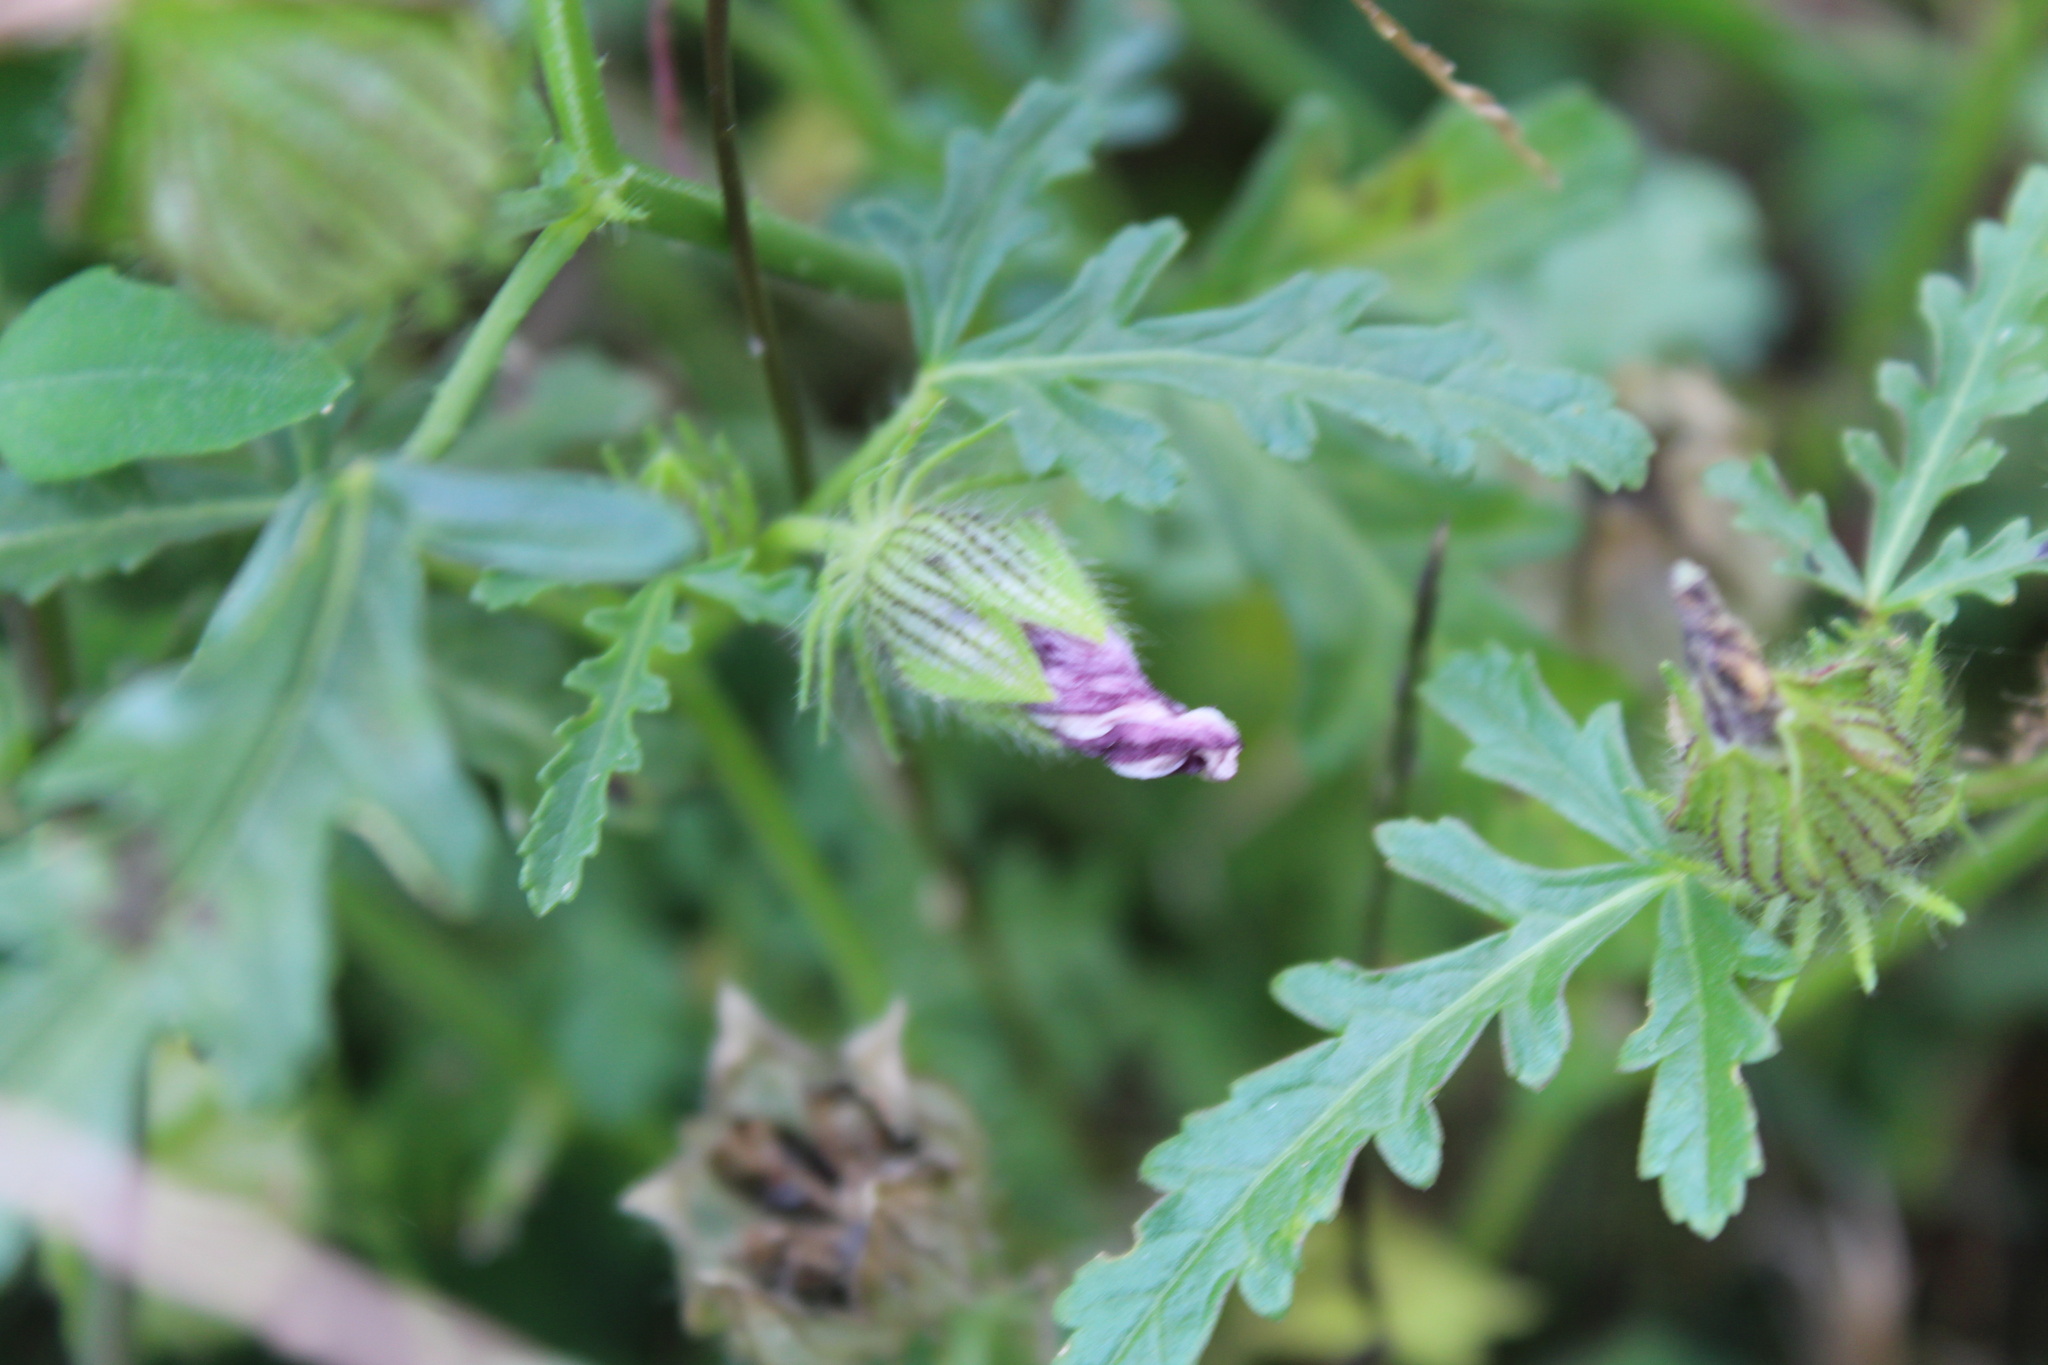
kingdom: Plantae
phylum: Tracheophyta
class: Magnoliopsida
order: Malvales
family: Malvaceae
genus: Hibiscus
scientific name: Hibiscus trionum
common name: Bladder ketmia
